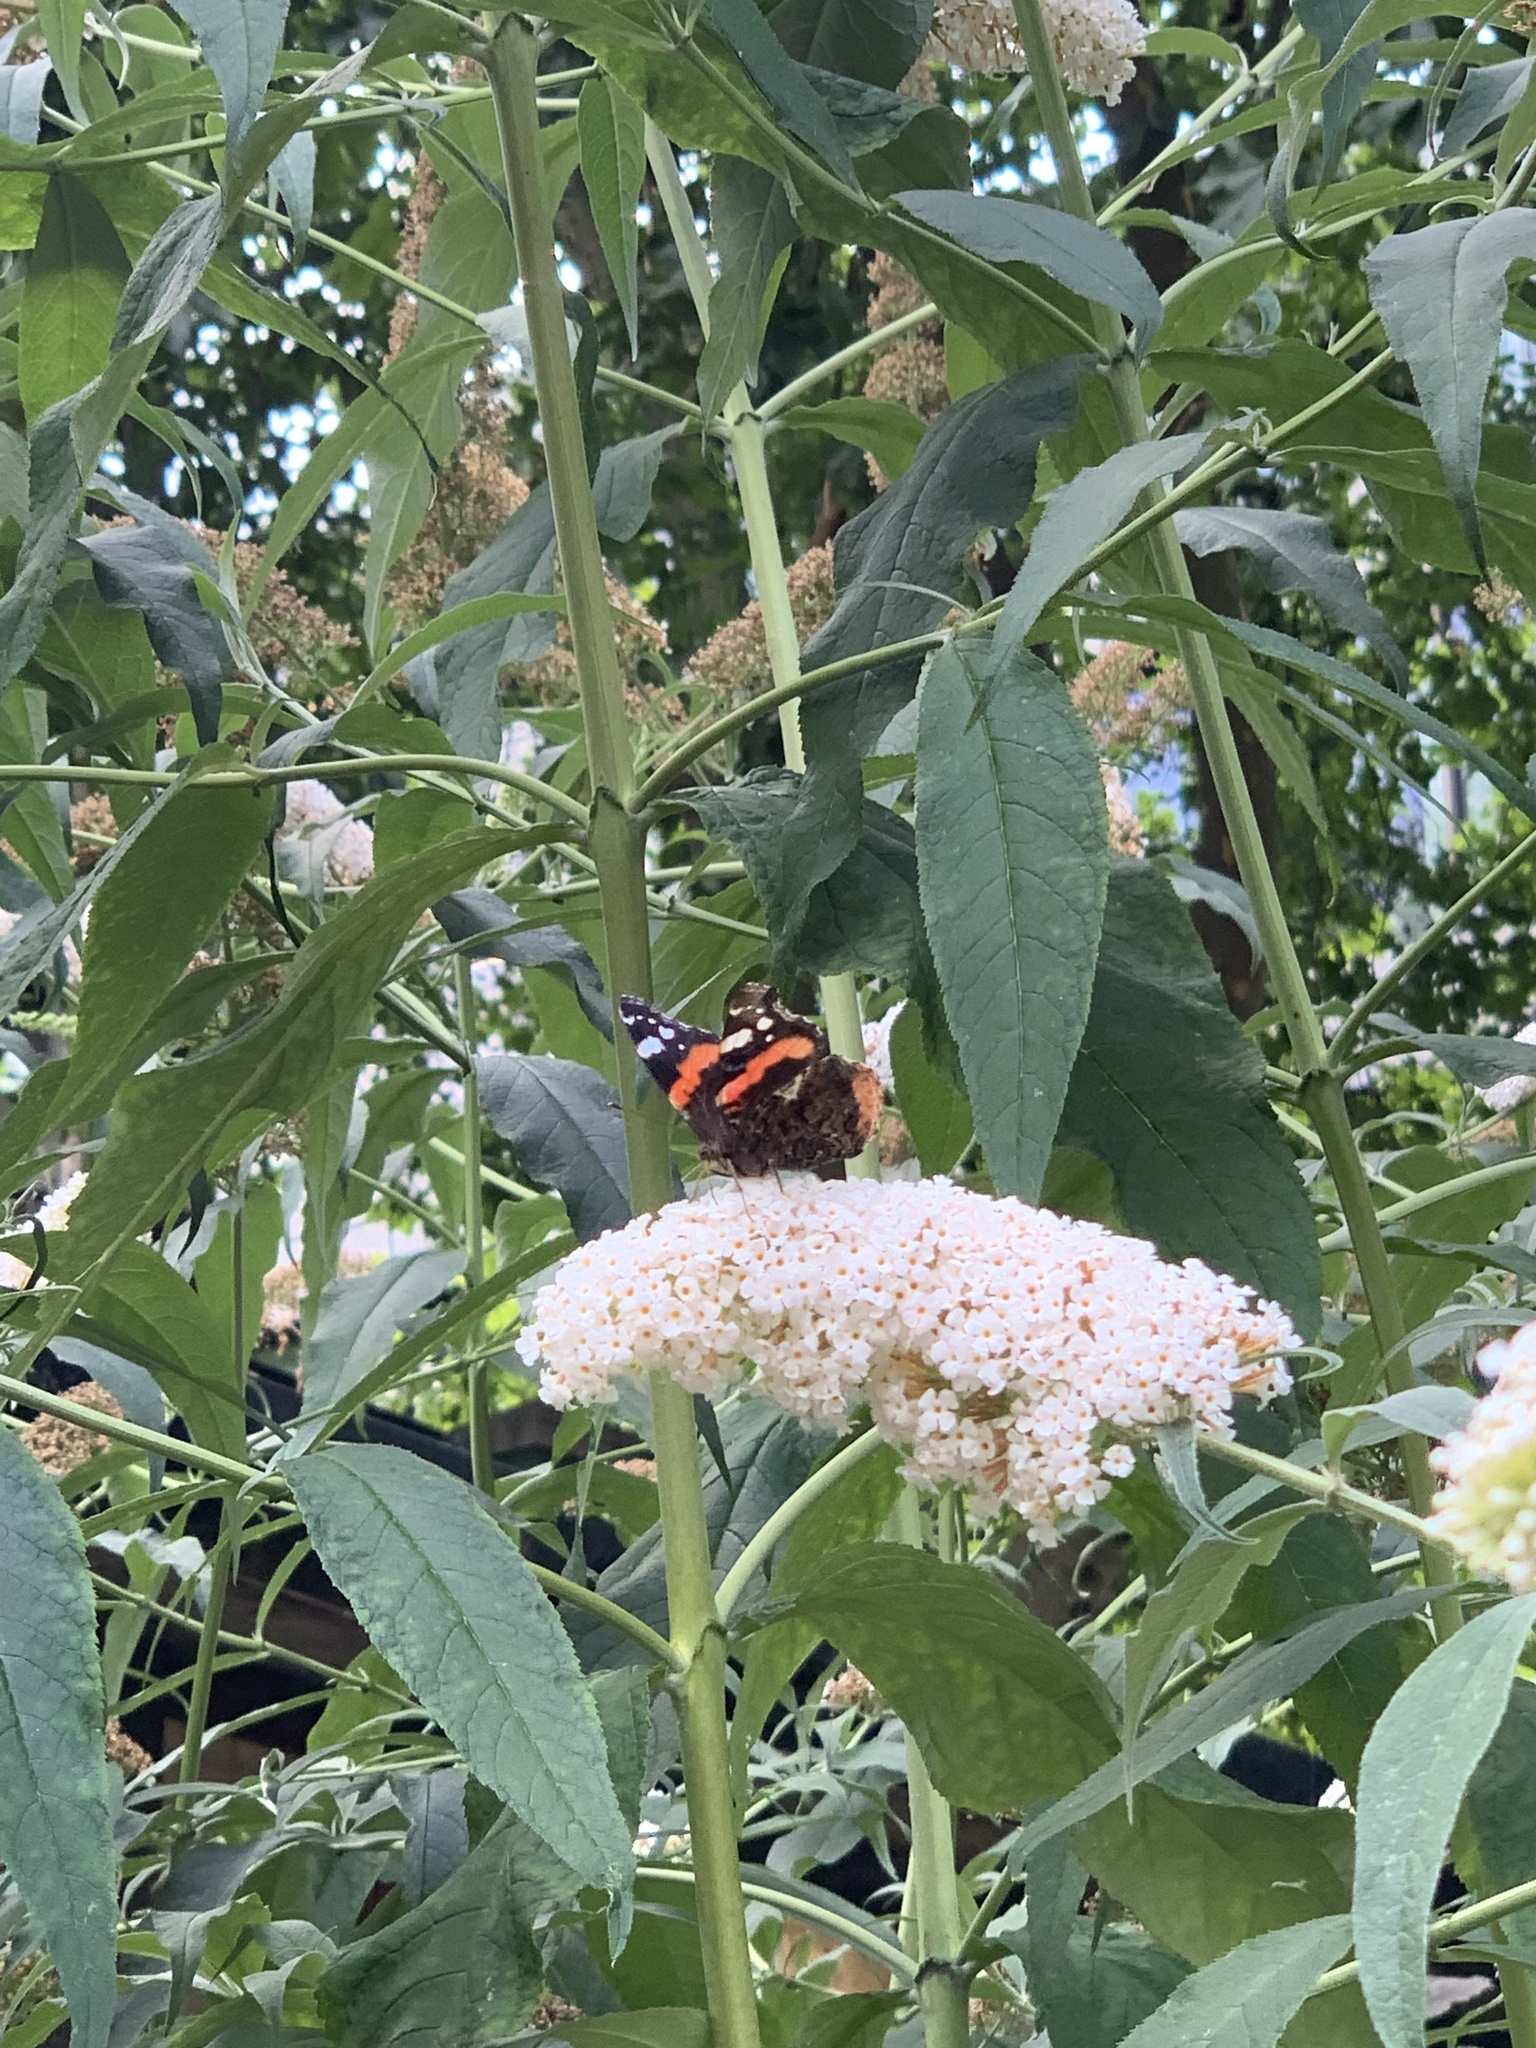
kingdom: Animalia
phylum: Arthropoda
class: Insecta
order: Lepidoptera
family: Nymphalidae
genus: Vanessa
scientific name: Vanessa atalanta
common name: Red admiral
